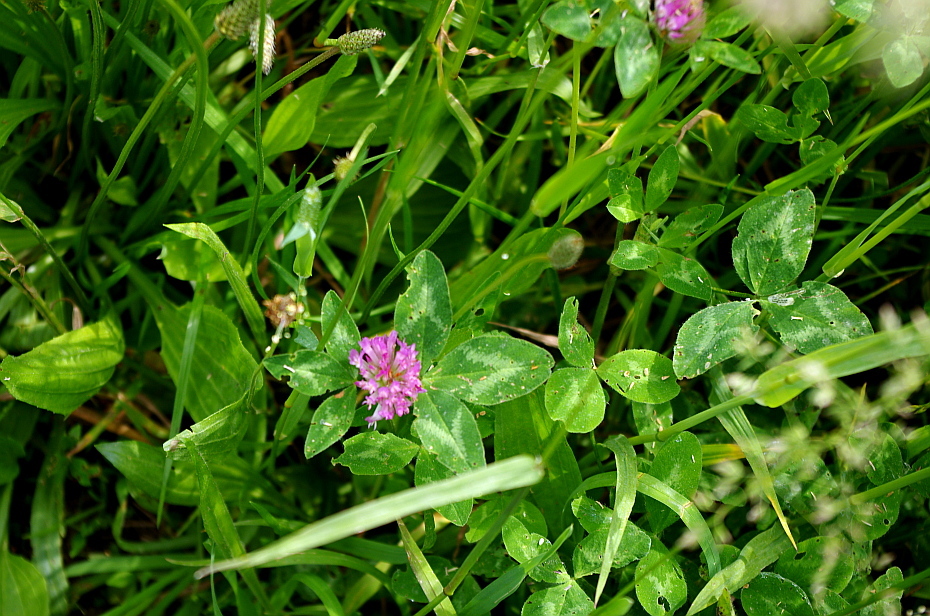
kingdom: Plantae
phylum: Tracheophyta
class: Magnoliopsida
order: Fabales
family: Fabaceae
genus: Trifolium
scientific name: Trifolium pratense
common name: Red clover
